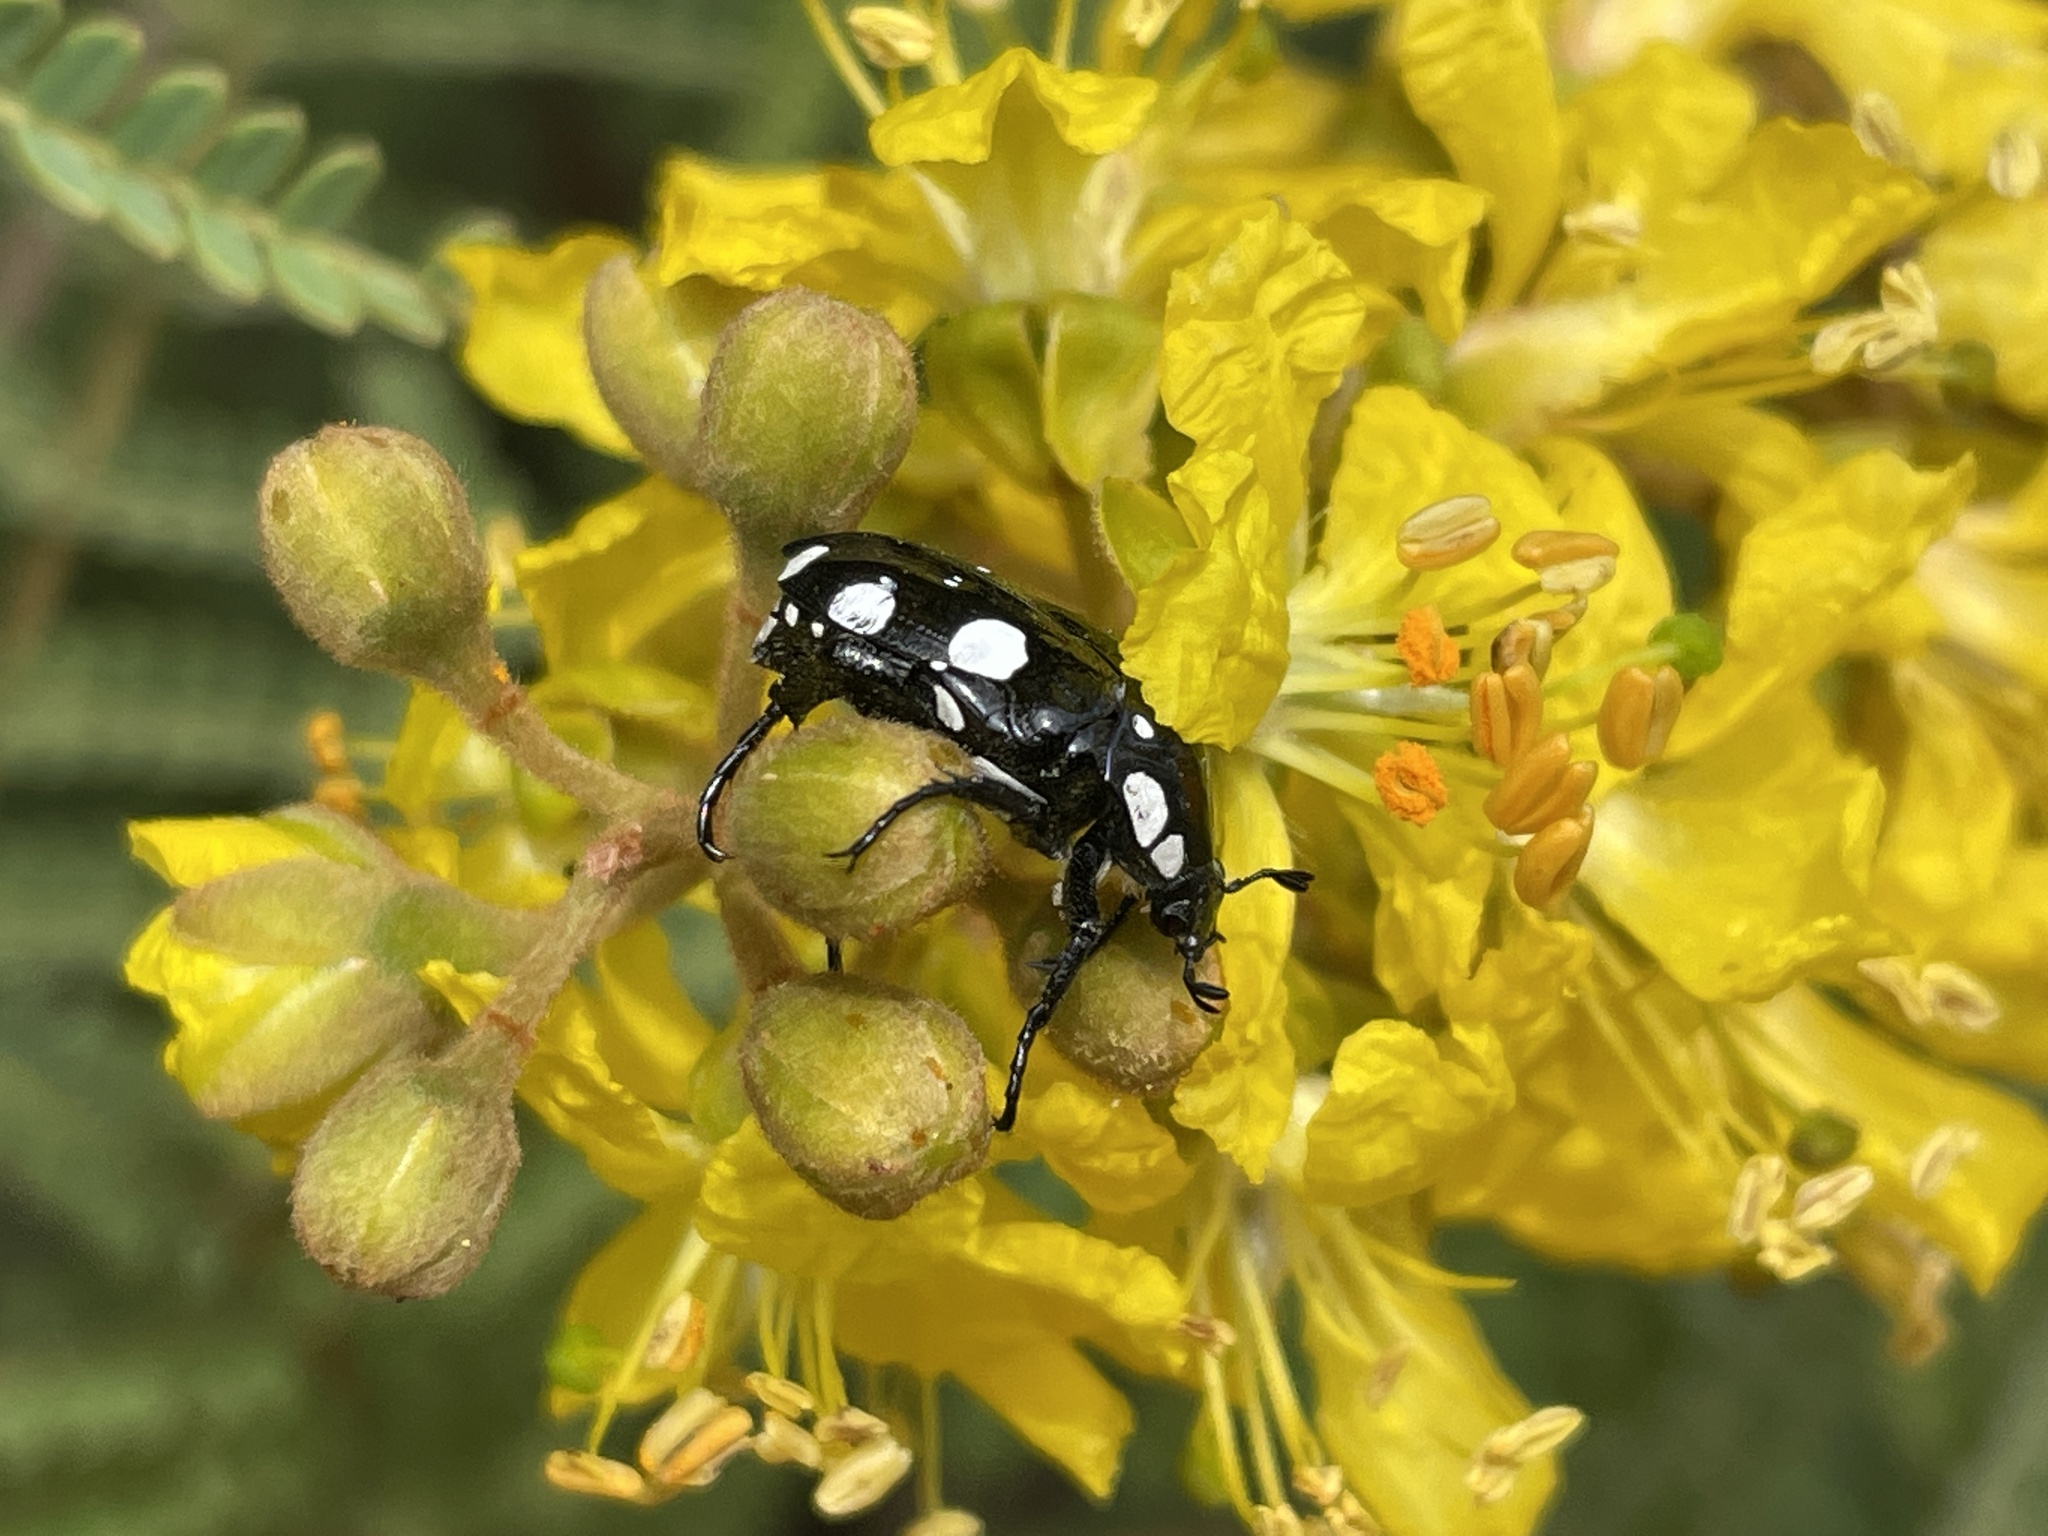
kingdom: Animalia
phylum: Arthropoda
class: Insecta
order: Coleoptera
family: Scarabaeidae
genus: Mausoleopsis
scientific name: Mausoleopsis amabilis
